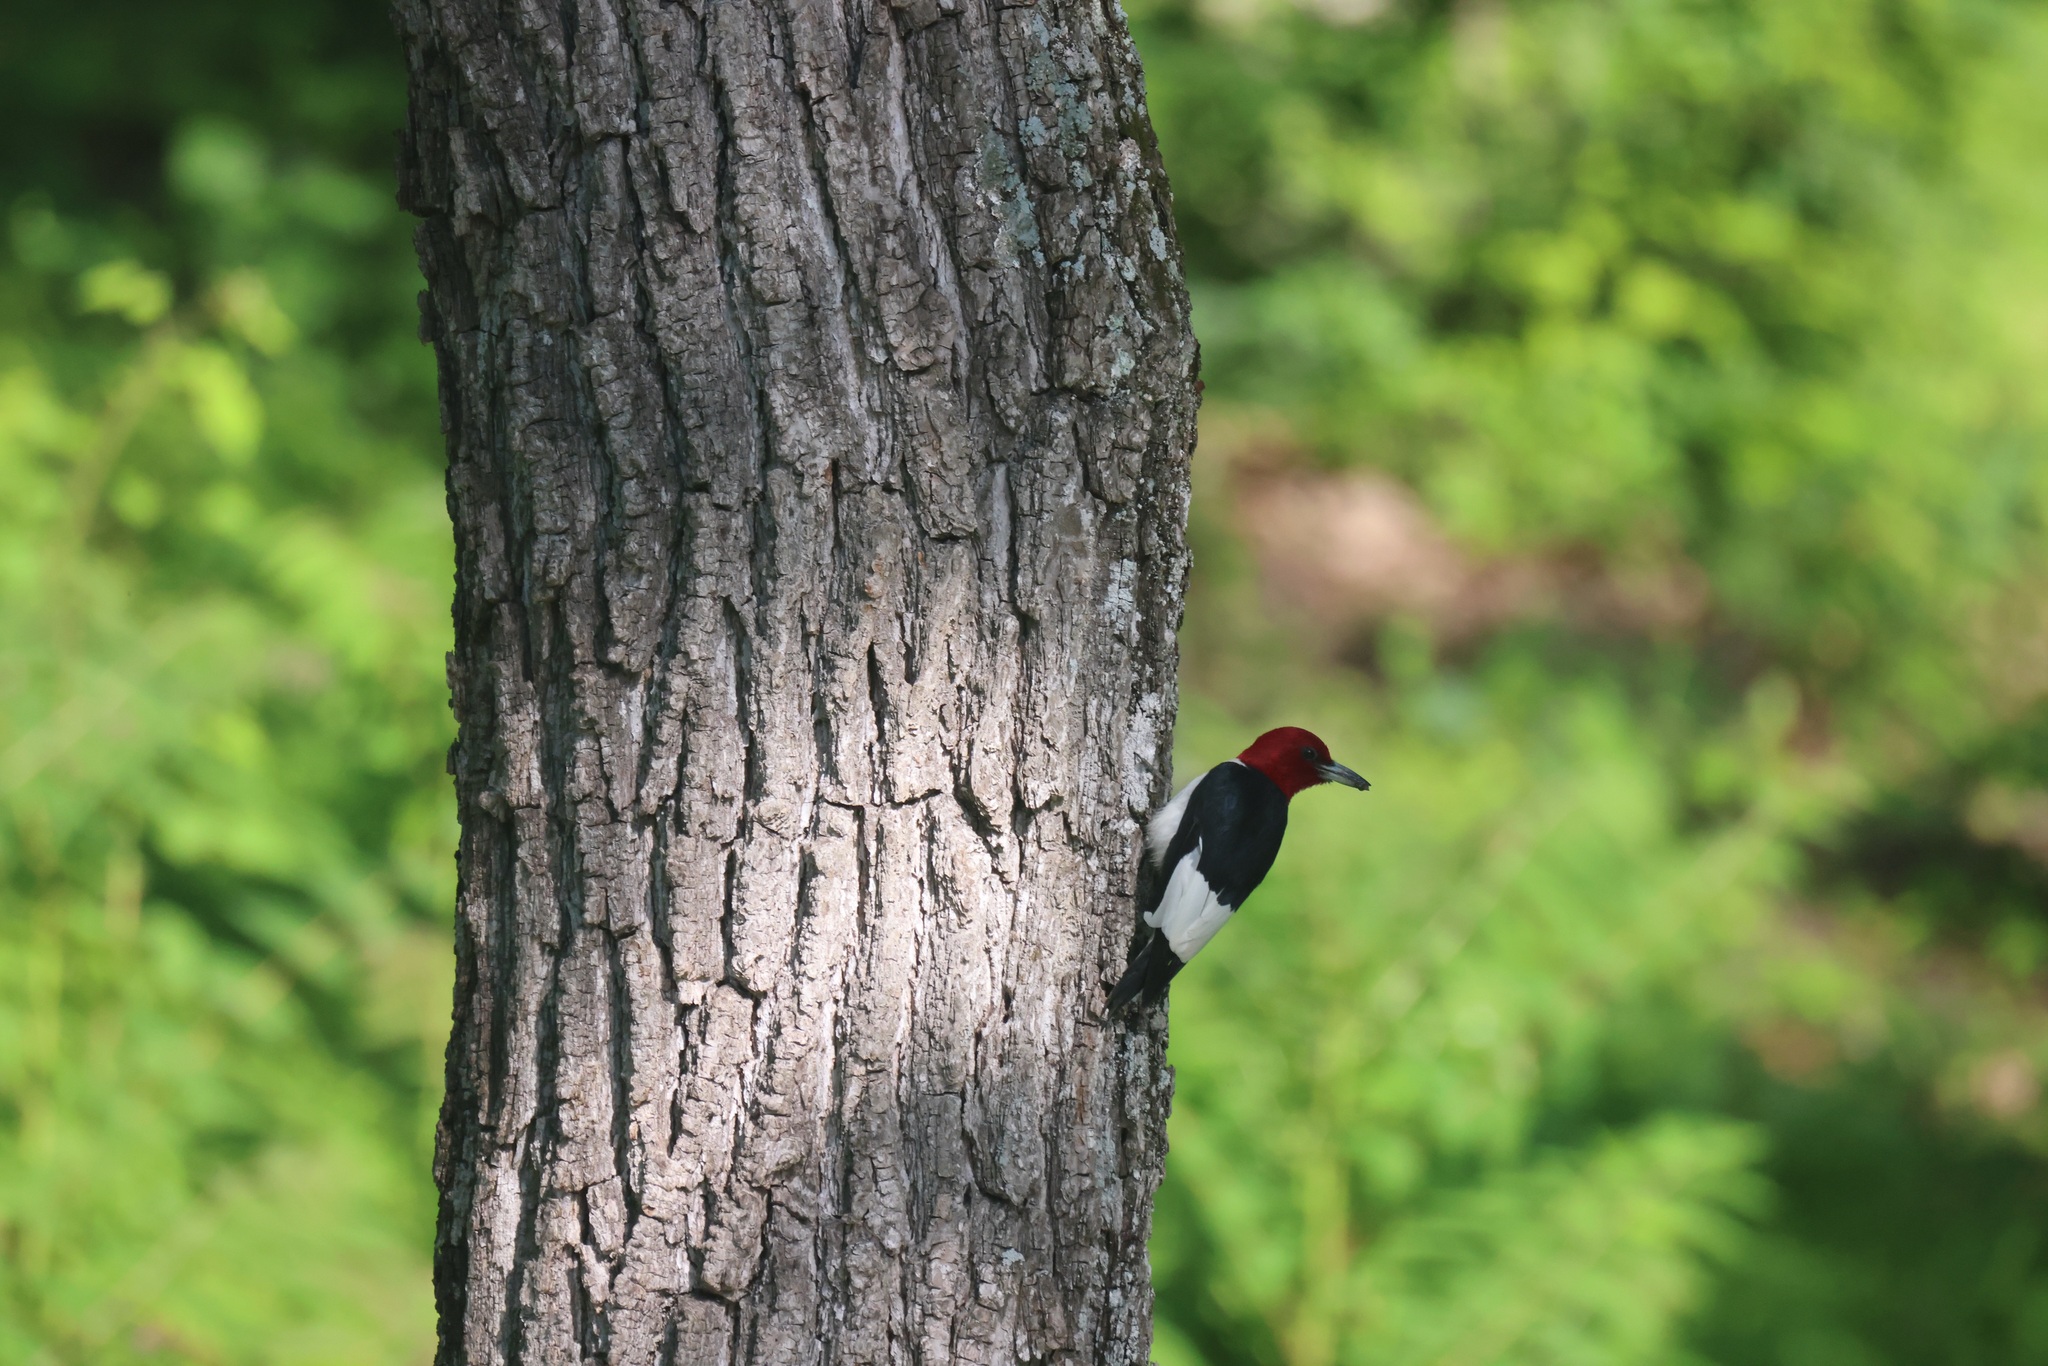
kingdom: Animalia
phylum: Chordata
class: Aves
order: Piciformes
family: Picidae
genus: Melanerpes
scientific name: Melanerpes erythrocephalus
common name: Red-headed woodpecker
